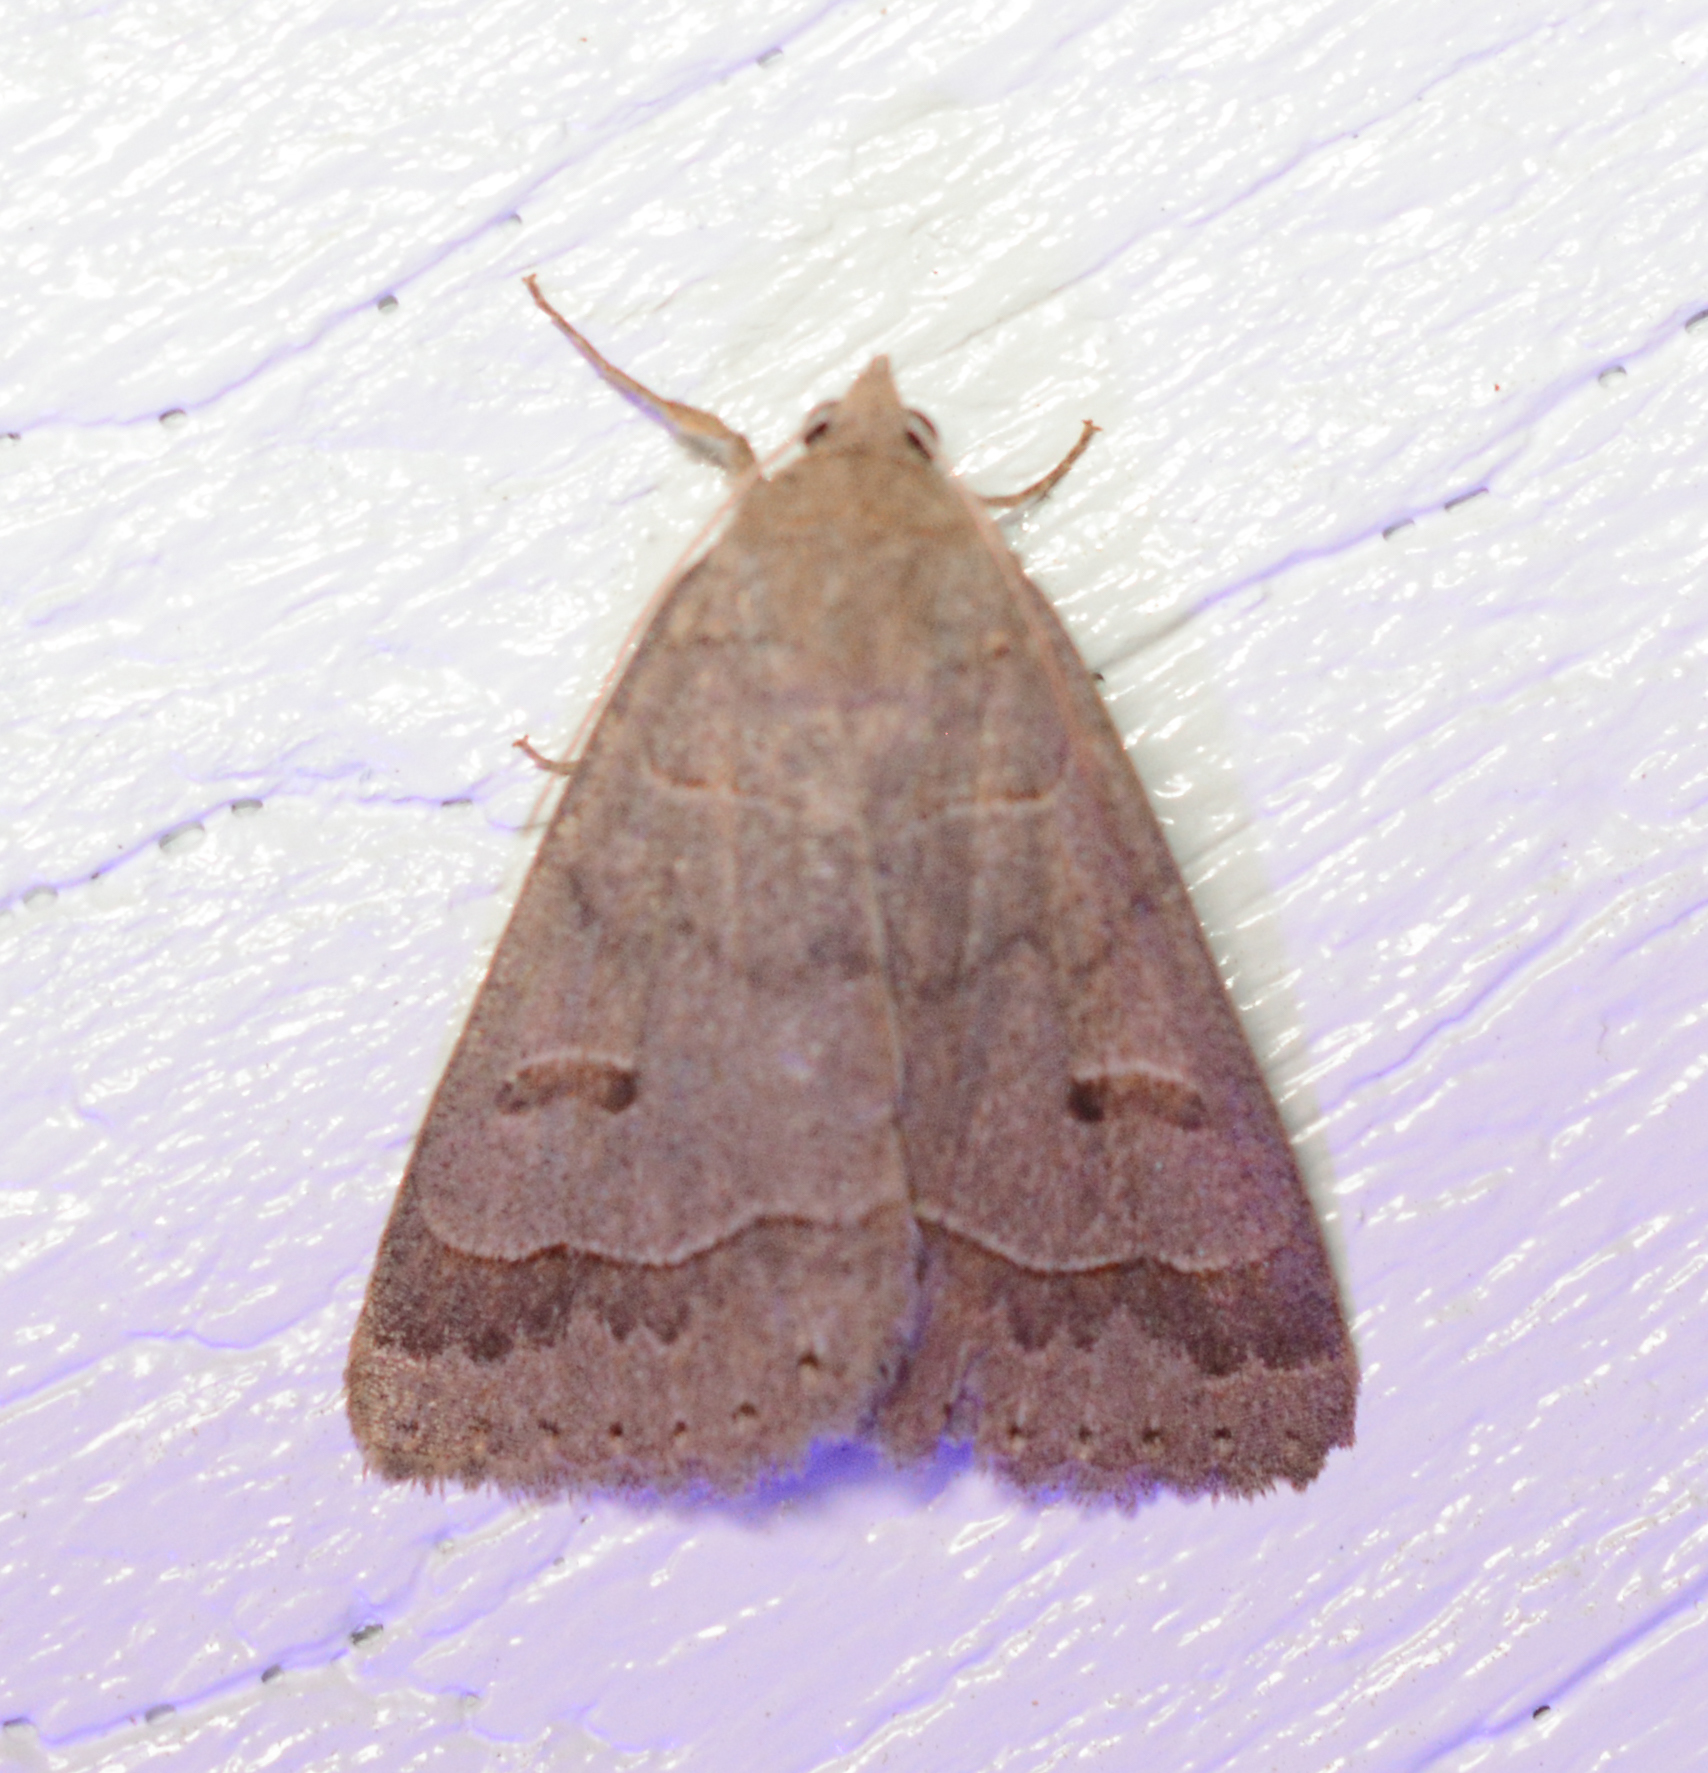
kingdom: Animalia
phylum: Arthropoda
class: Insecta
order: Lepidoptera
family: Erebidae
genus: Phoberia
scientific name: Phoberia atomaris
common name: Common oak moth
